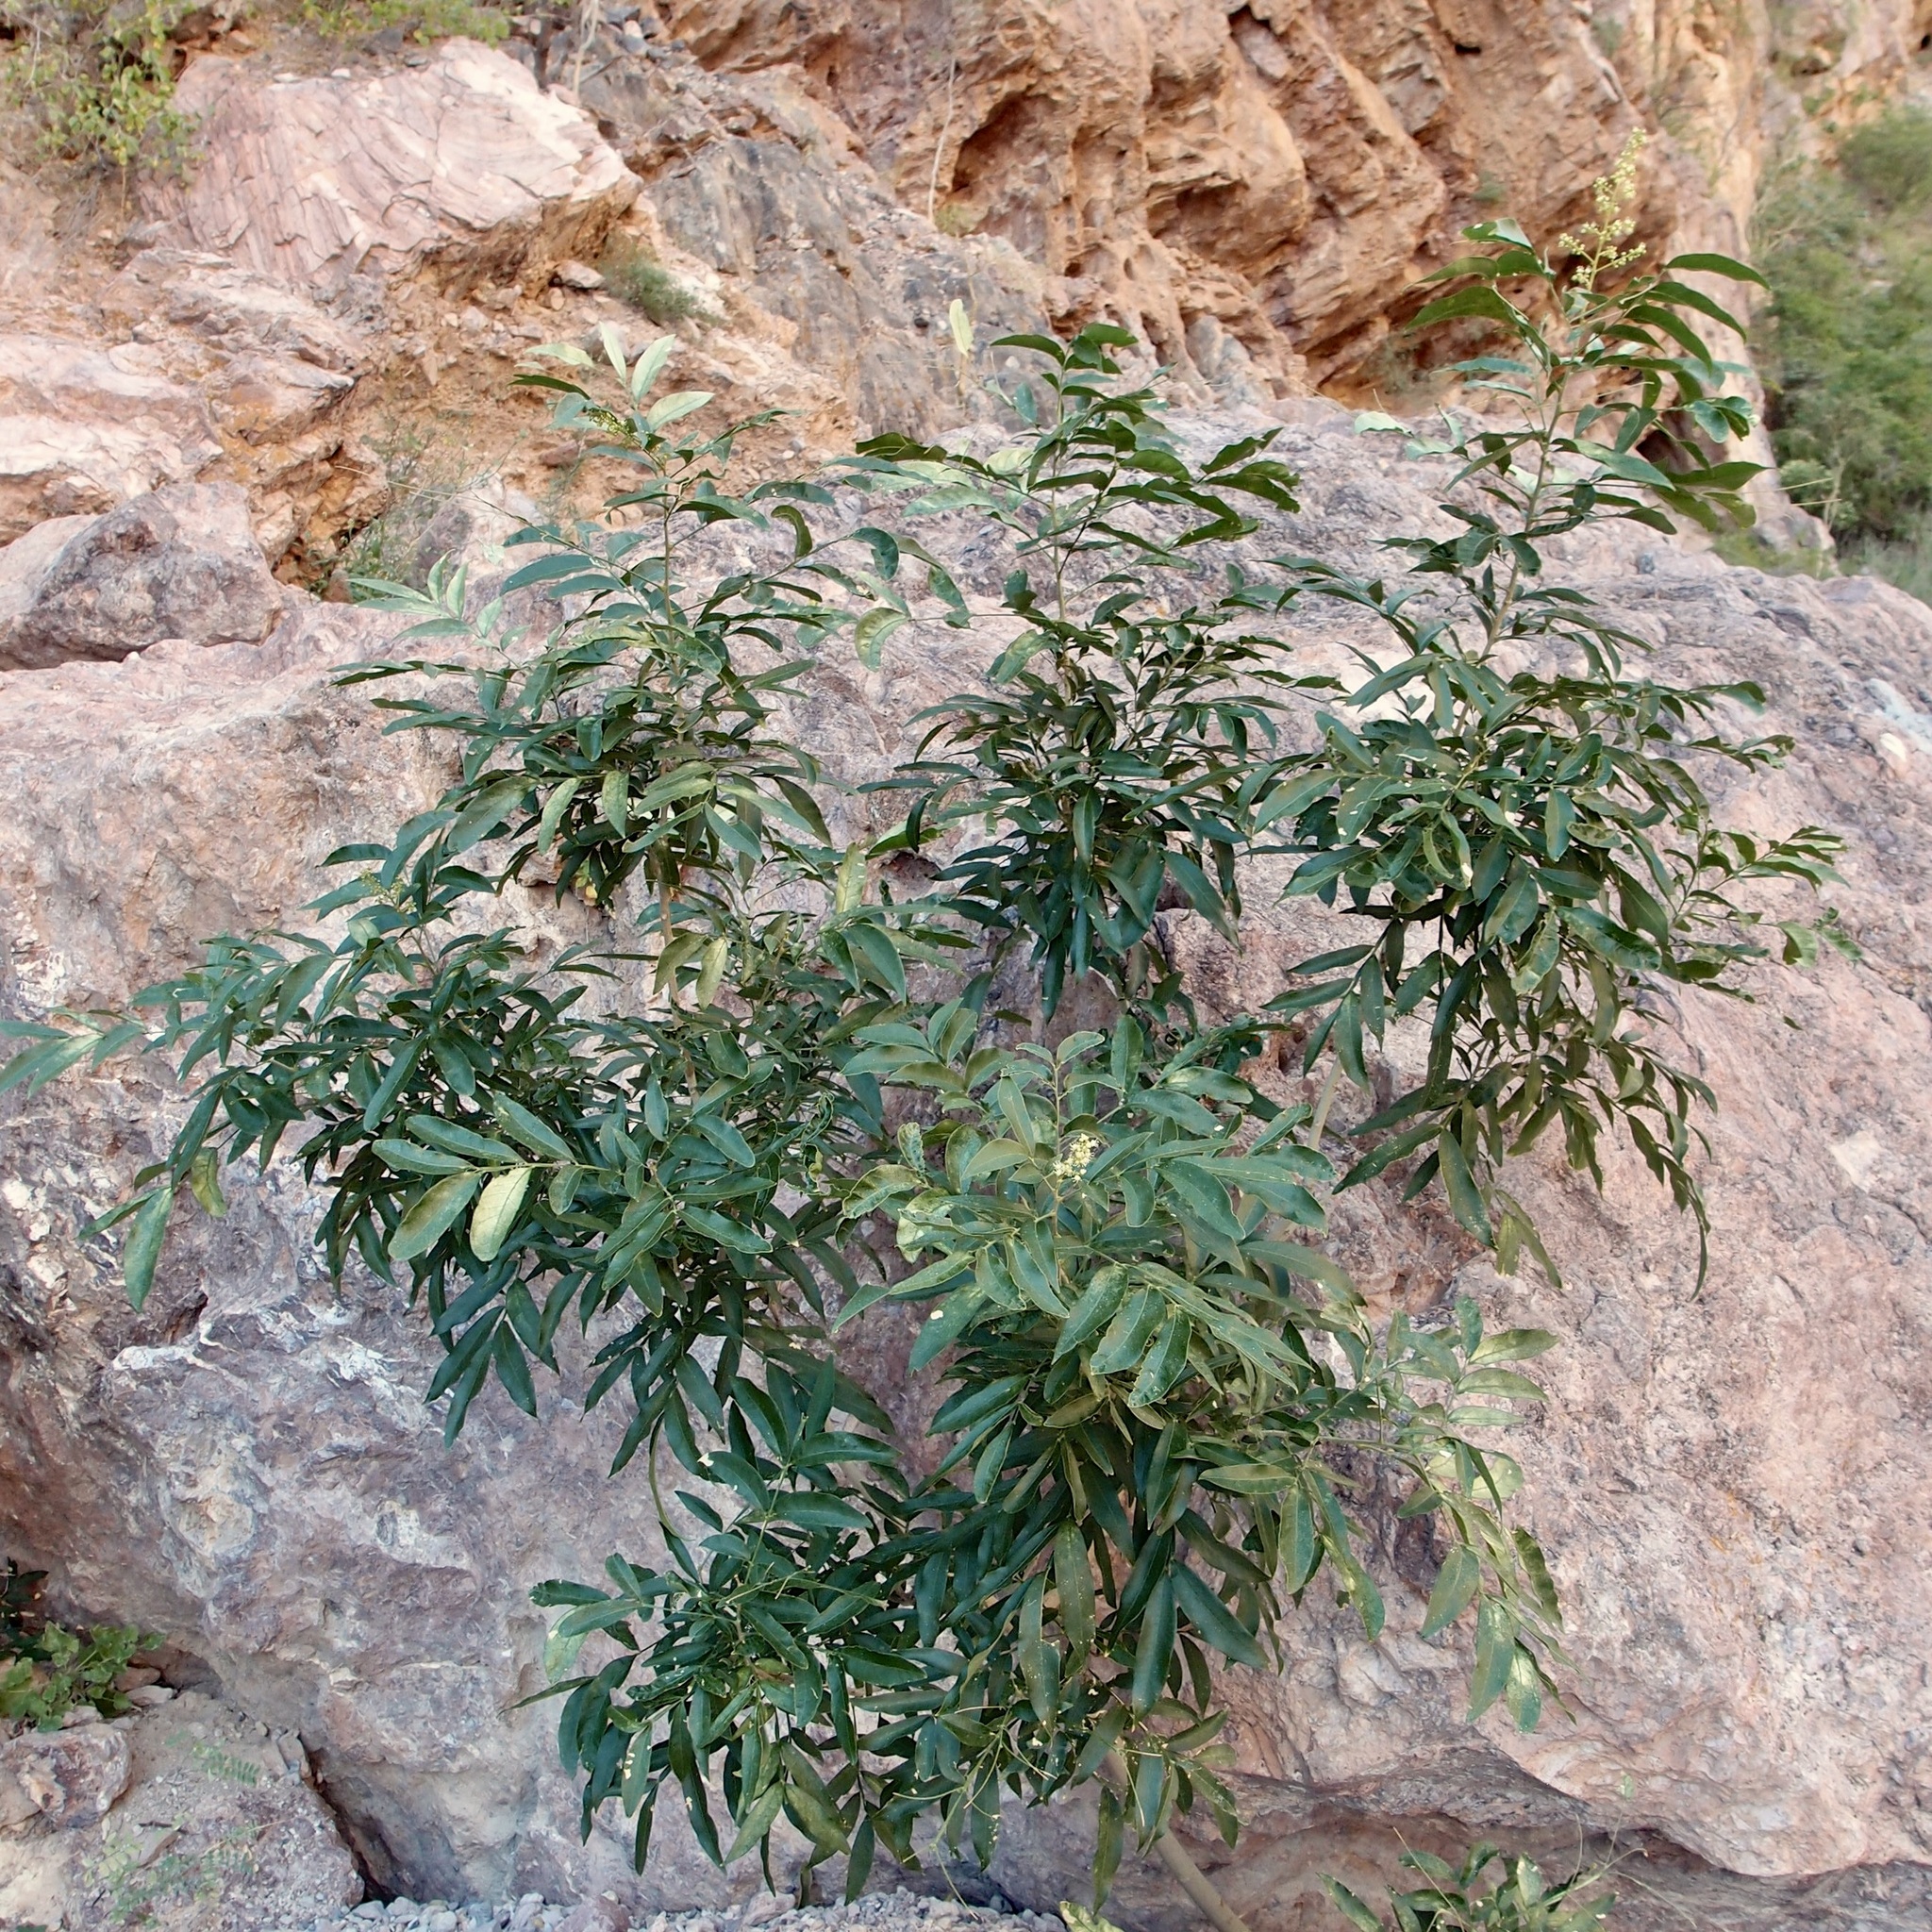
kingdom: Plantae
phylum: Tracheophyta
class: Magnoliopsida
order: Sapindales
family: Sapindaceae
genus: Sapindus
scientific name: Sapindus saponaria
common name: Wingleaf soapberry
